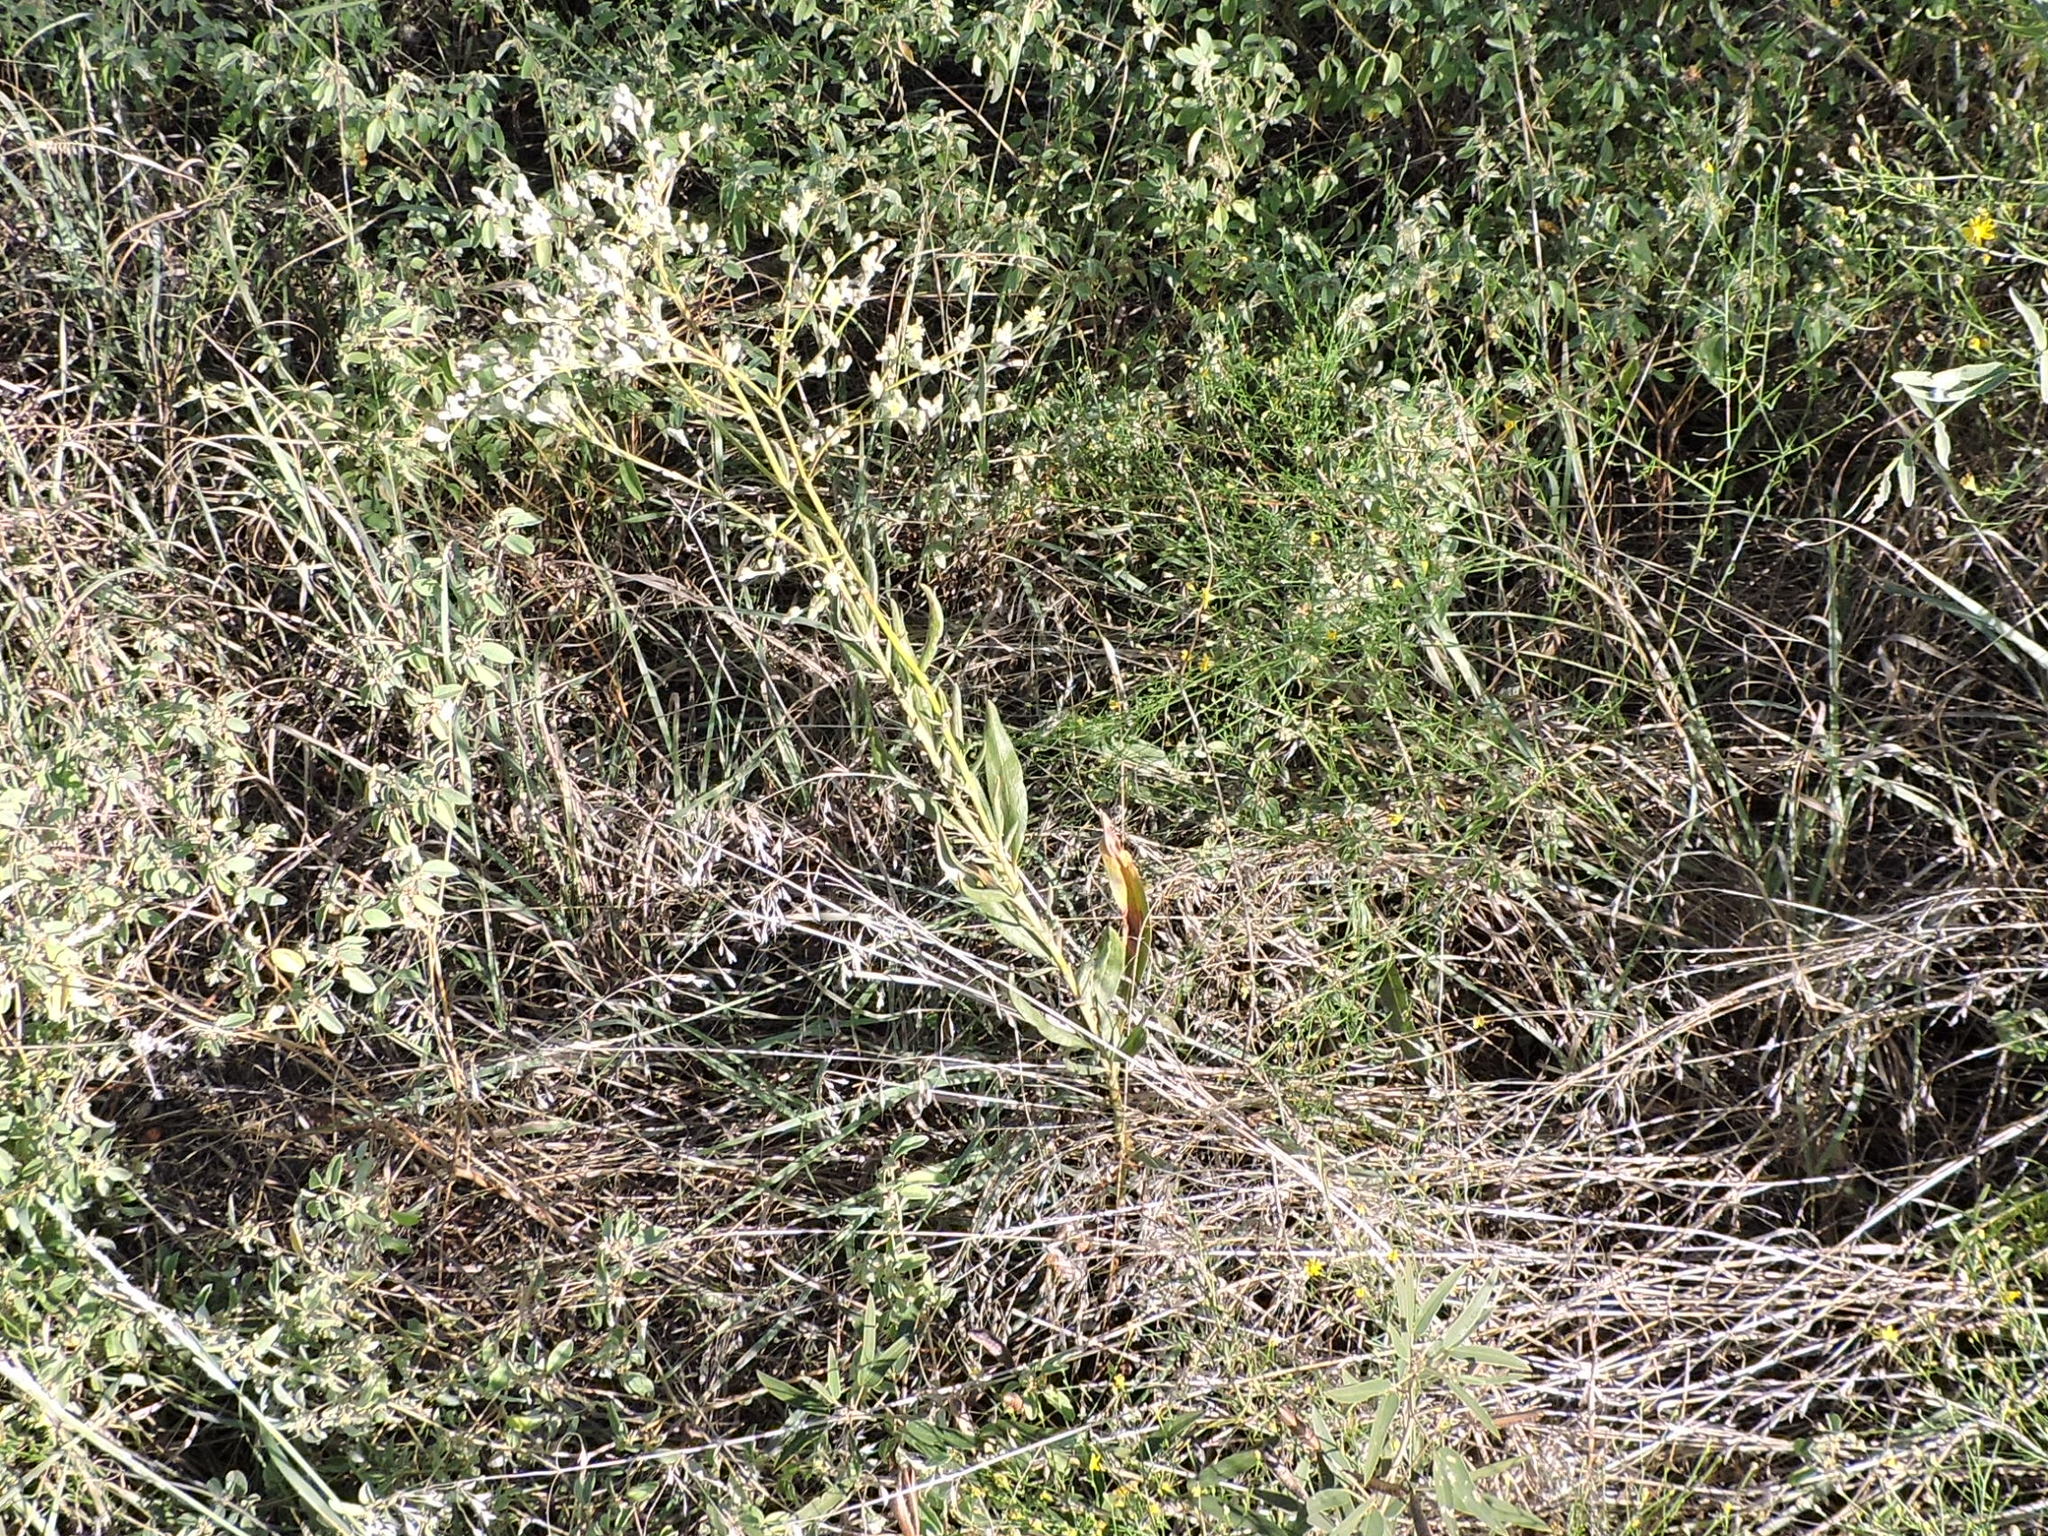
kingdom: Plantae
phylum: Tracheophyta
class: Magnoliopsida
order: Caryophyllales
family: Polygonaceae
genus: Eriogonum
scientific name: Eriogonum longifolium
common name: Longleaf wild buckwheat
